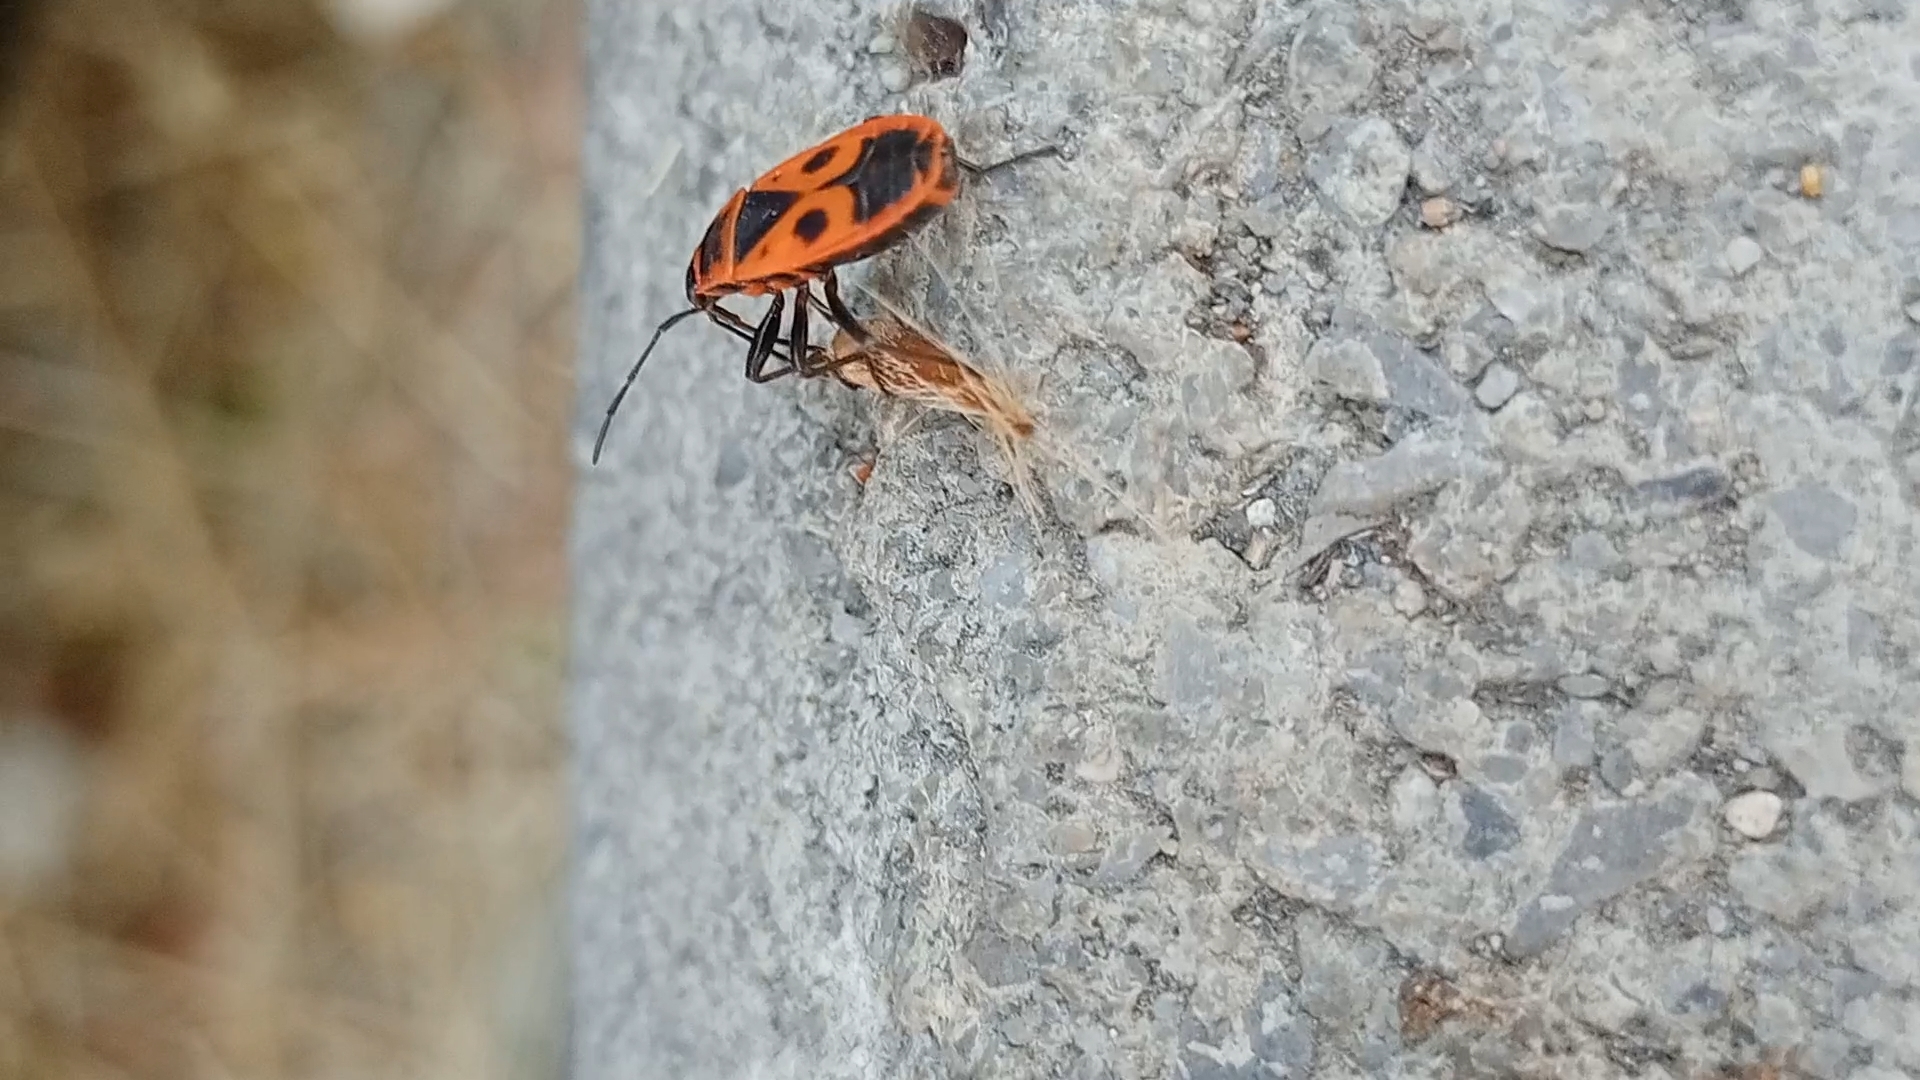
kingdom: Animalia
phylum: Arthropoda
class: Insecta
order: Hemiptera
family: Pyrrhocoridae
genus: Pyrrhocoris
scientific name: Pyrrhocoris apterus
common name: Firebug
